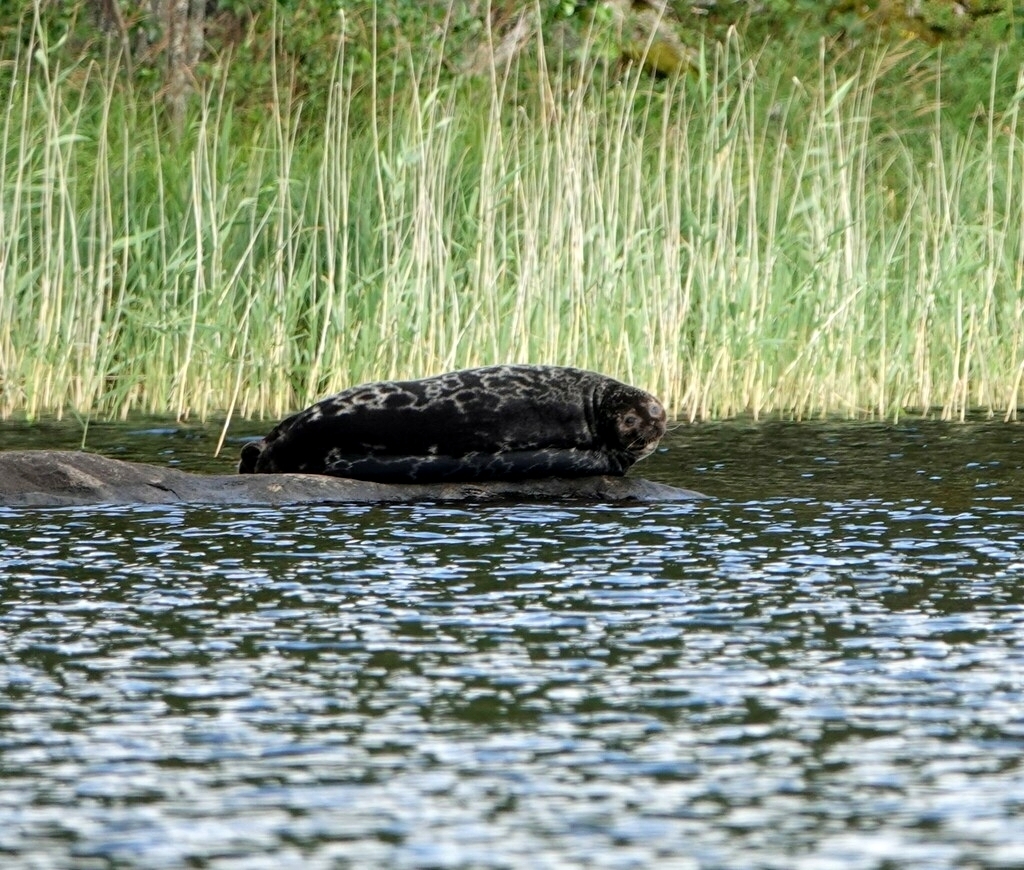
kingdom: Animalia
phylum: Chordata
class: Mammalia
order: Carnivora
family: Phocidae
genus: Pusa
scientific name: Pusa hispida
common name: Ringed seal
